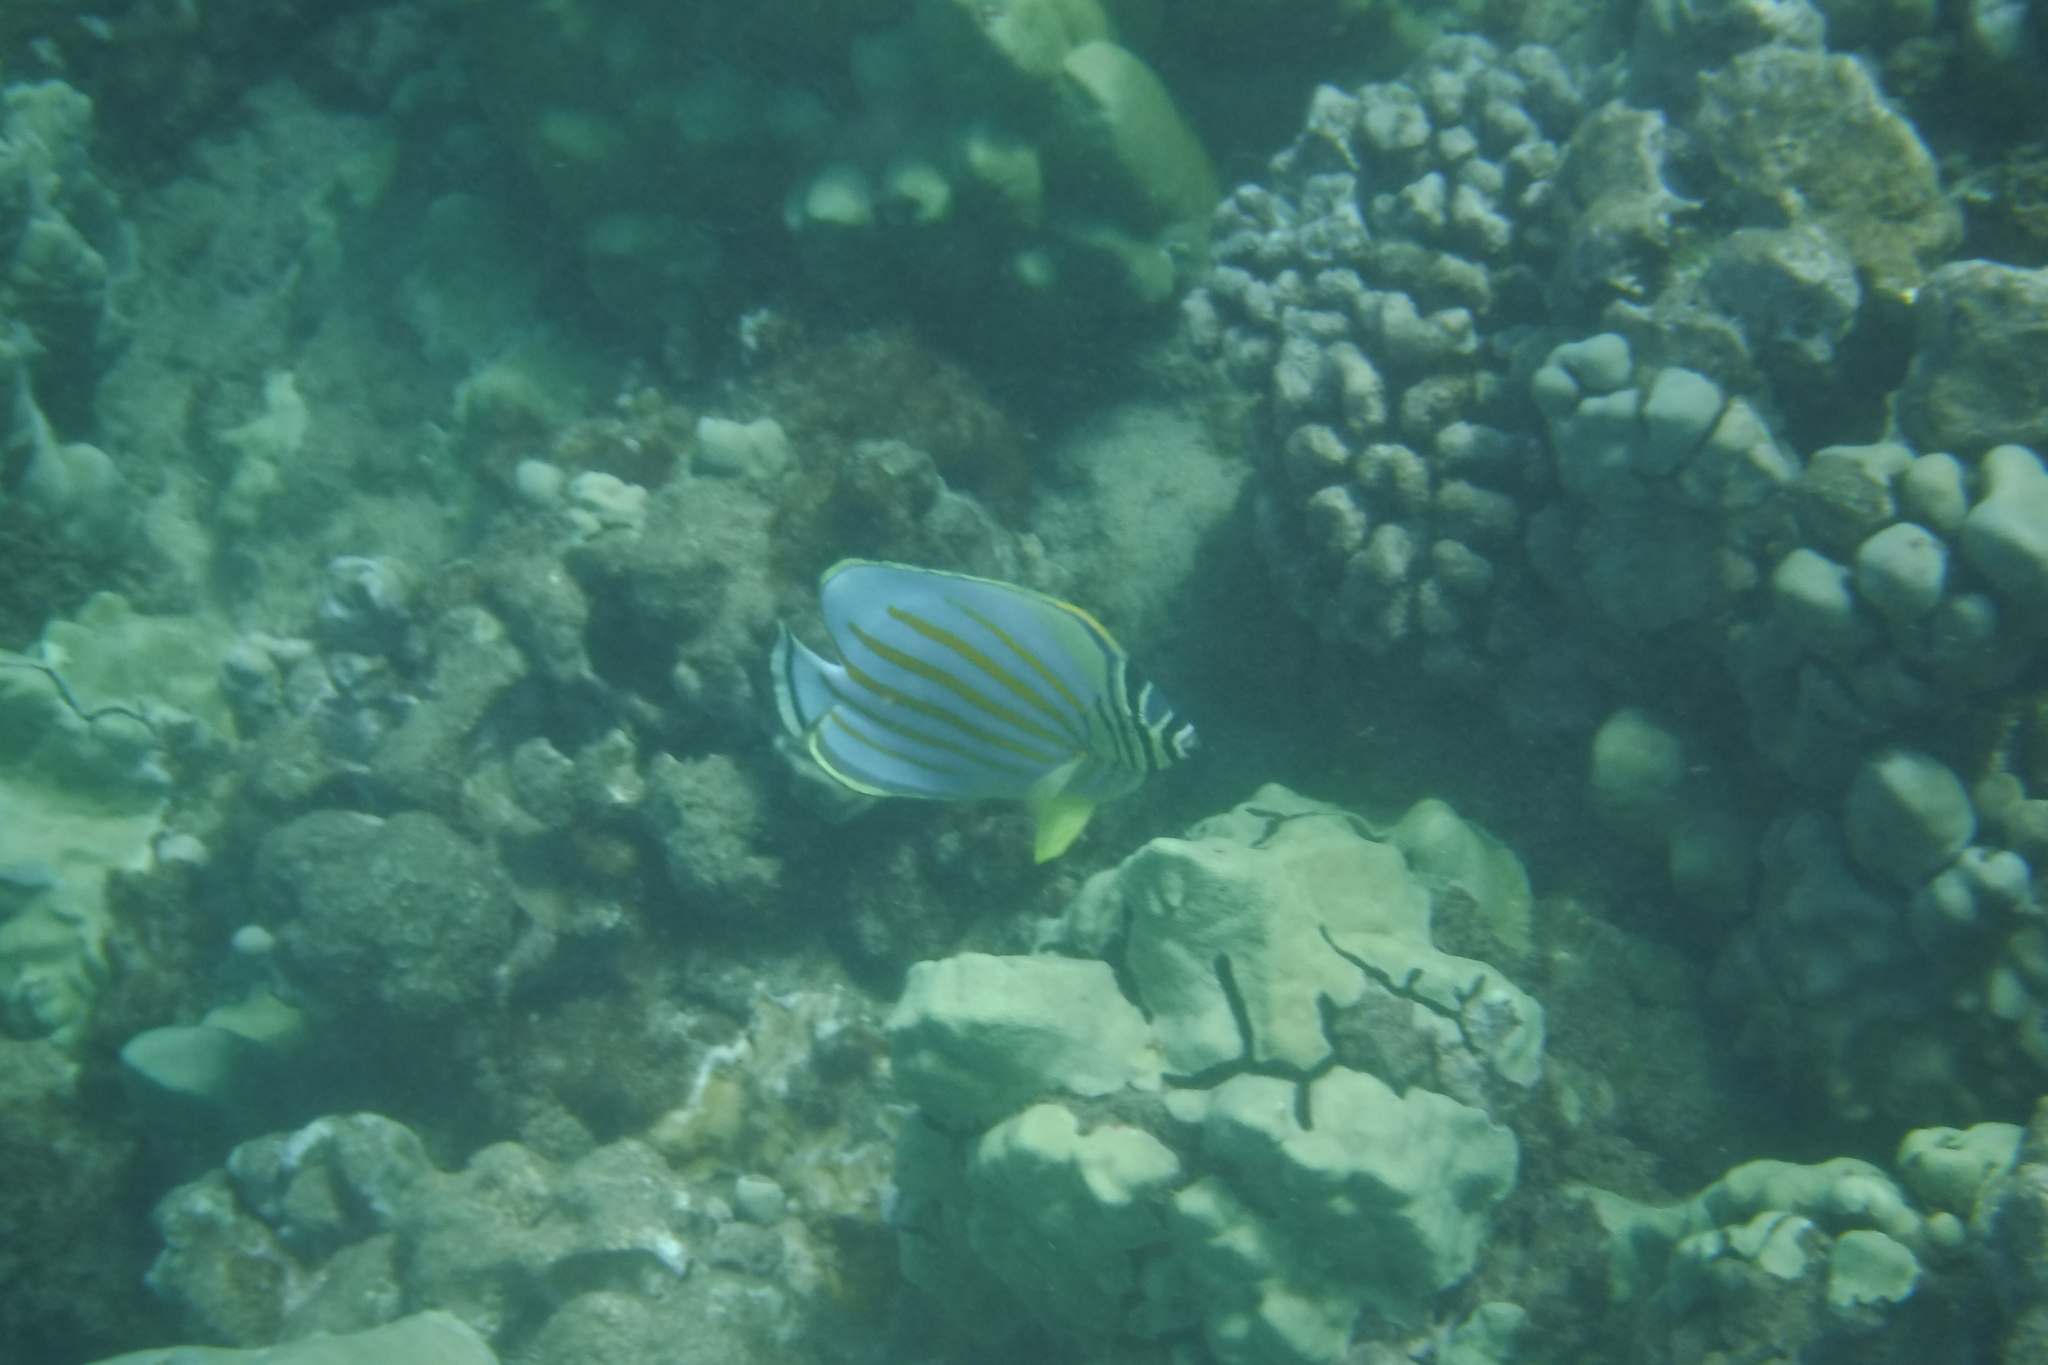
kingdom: Animalia
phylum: Chordata
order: Perciformes
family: Chaetodontidae
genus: Chaetodon
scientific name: Chaetodon ornatissimus
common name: Ornate butterflyfish
